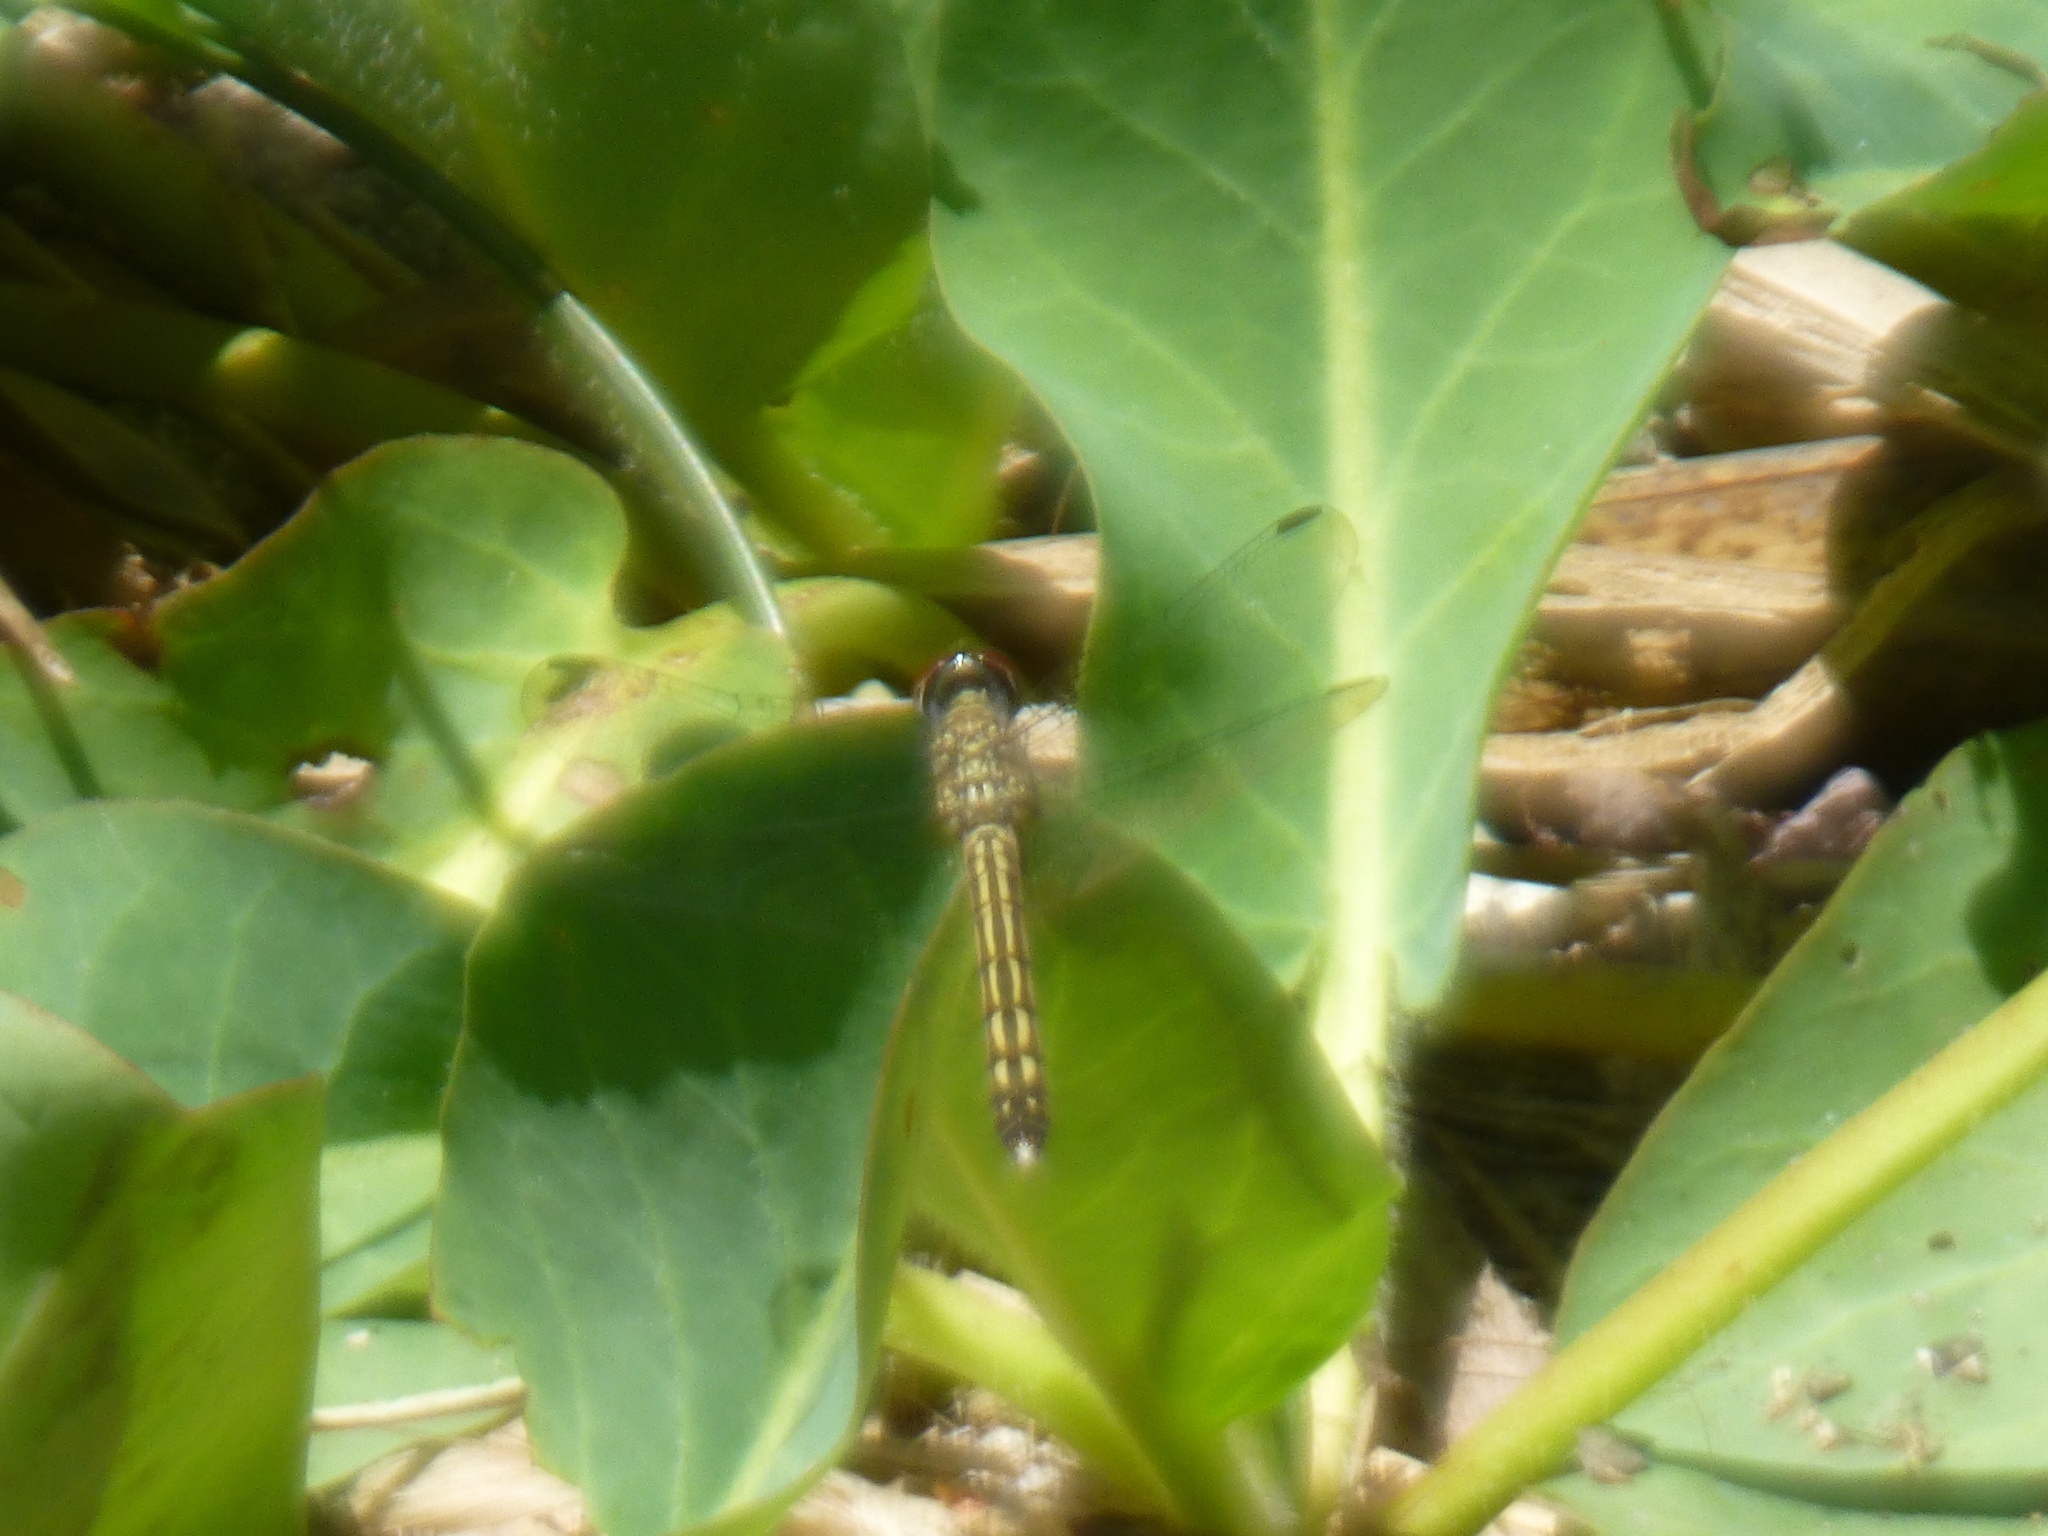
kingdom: Animalia
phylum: Arthropoda
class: Insecta
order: Odonata
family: Libellulidae
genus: Pachydiplax
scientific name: Pachydiplax longipennis
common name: Blue dasher
